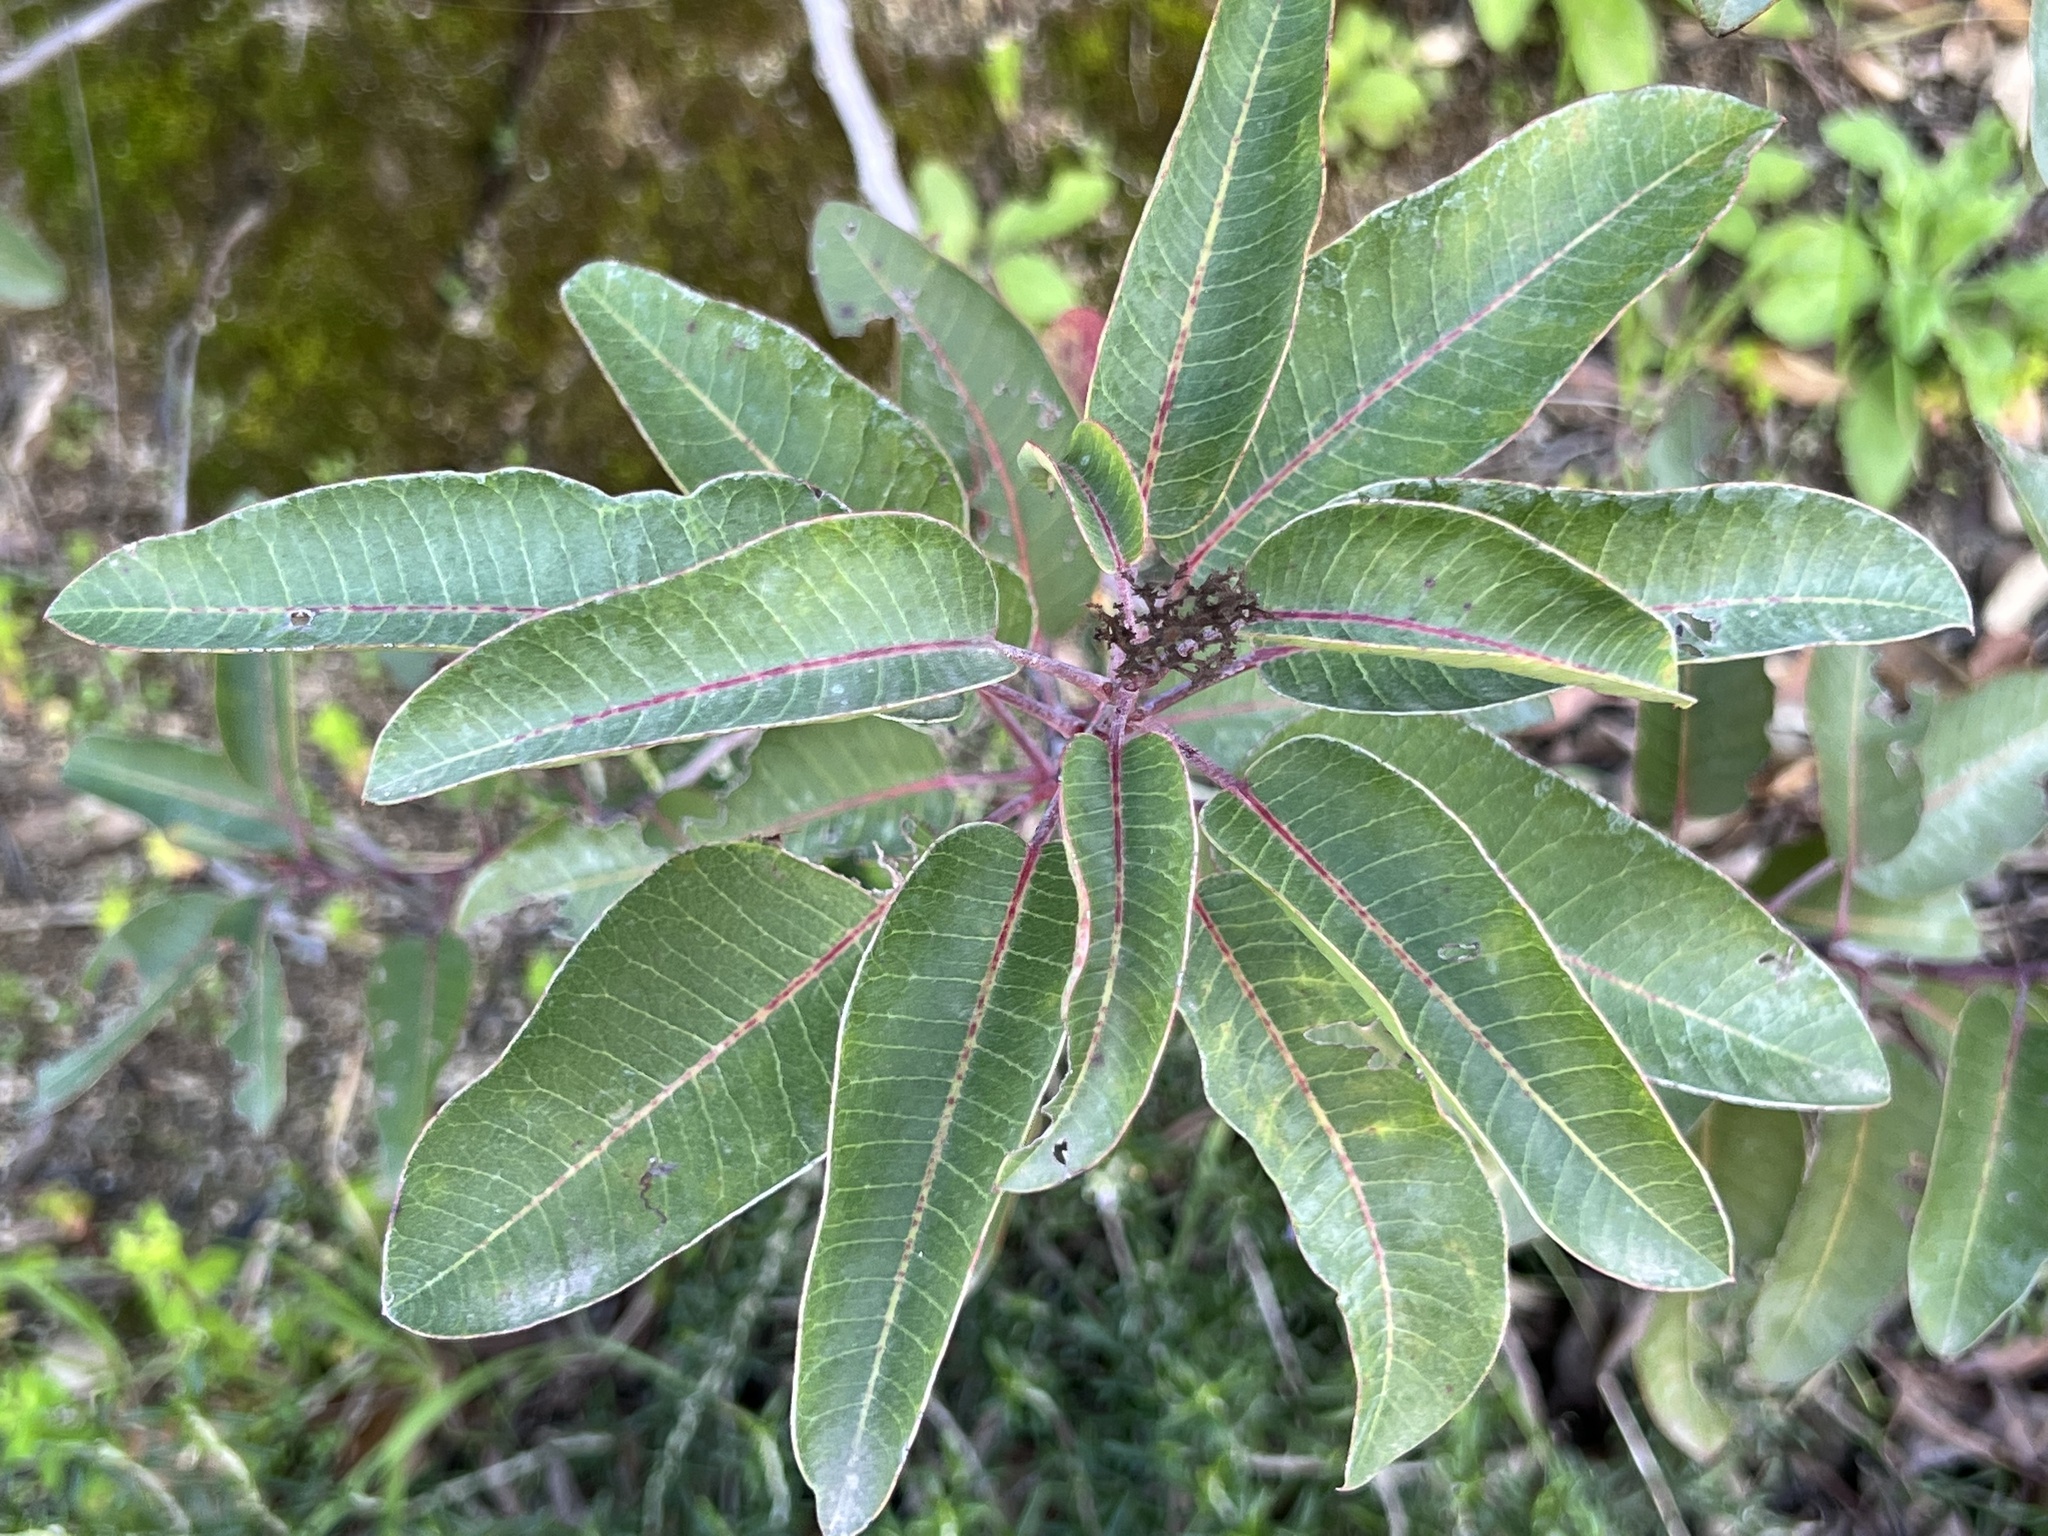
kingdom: Plantae
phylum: Tracheophyta
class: Magnoliopsida
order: Sapindales
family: Anacardiaceae
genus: Malosma
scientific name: Malosma laurina
